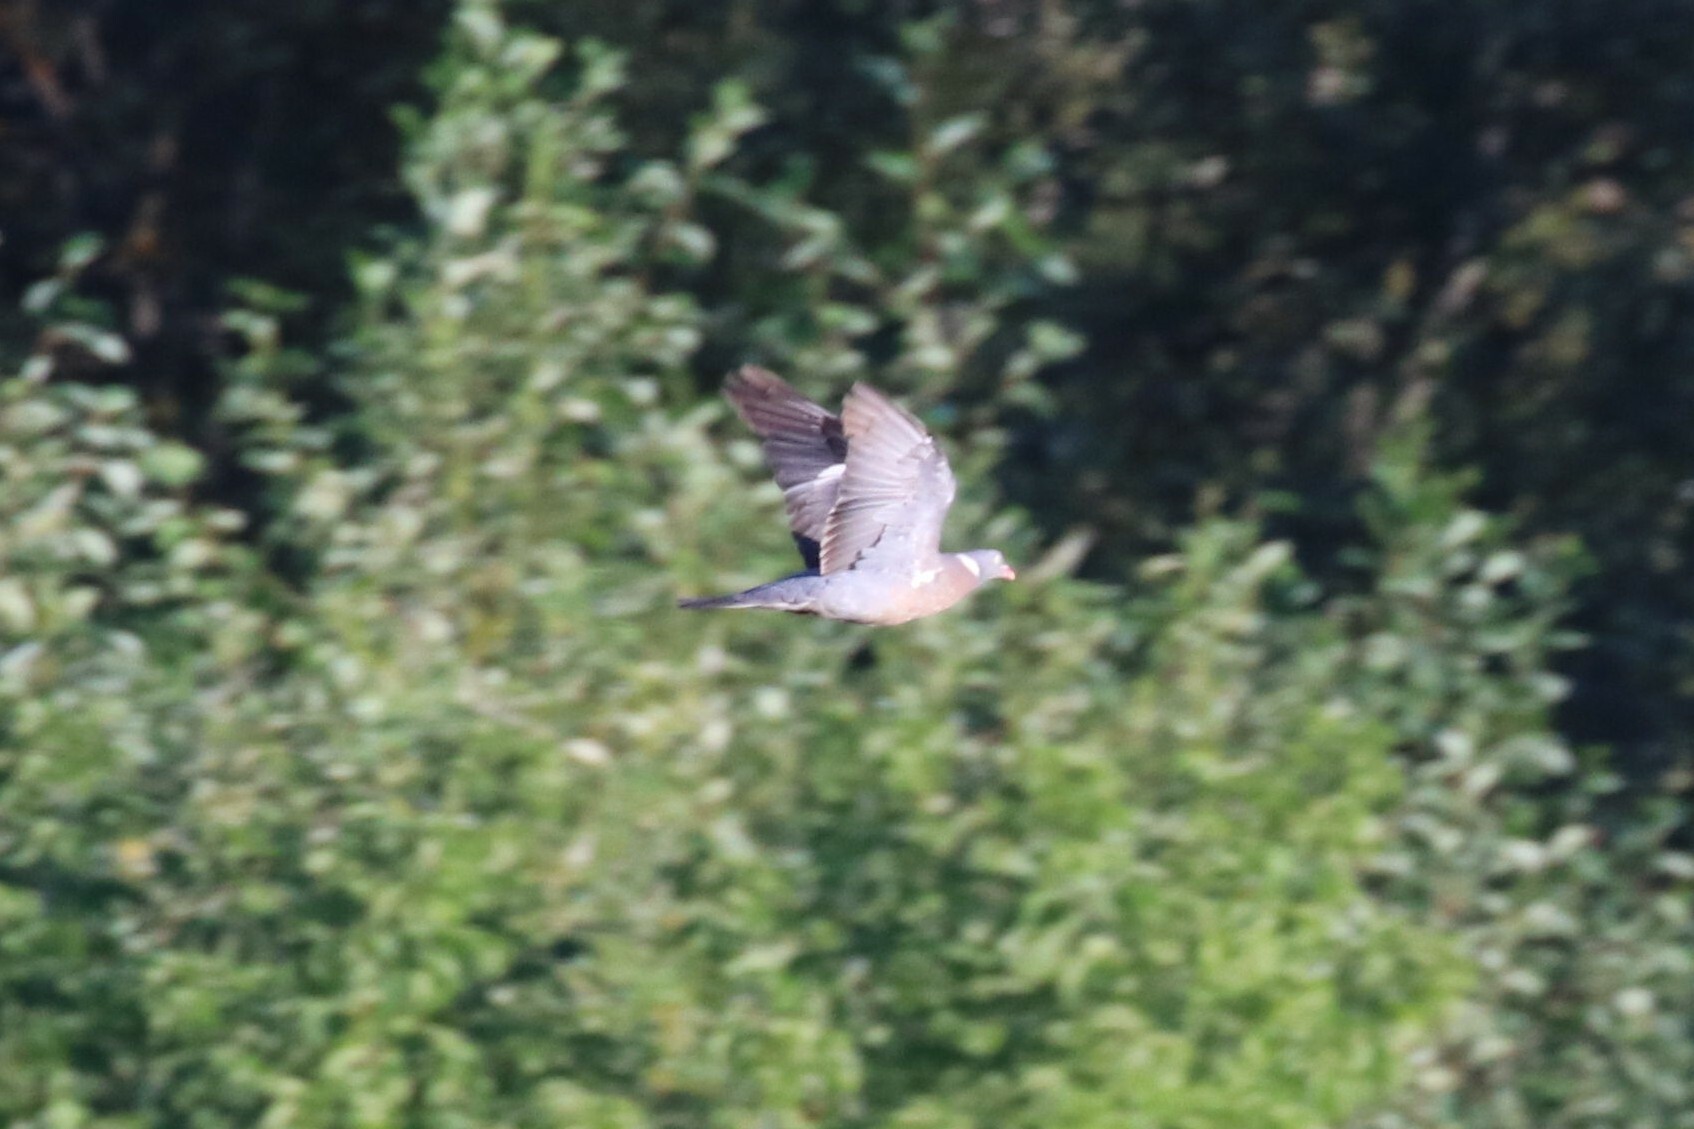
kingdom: Animalia
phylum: Chordata
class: Aves
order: Columbiformes
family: Columbidae
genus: Columba
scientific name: Columba palumbus
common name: Common wood pigeon
